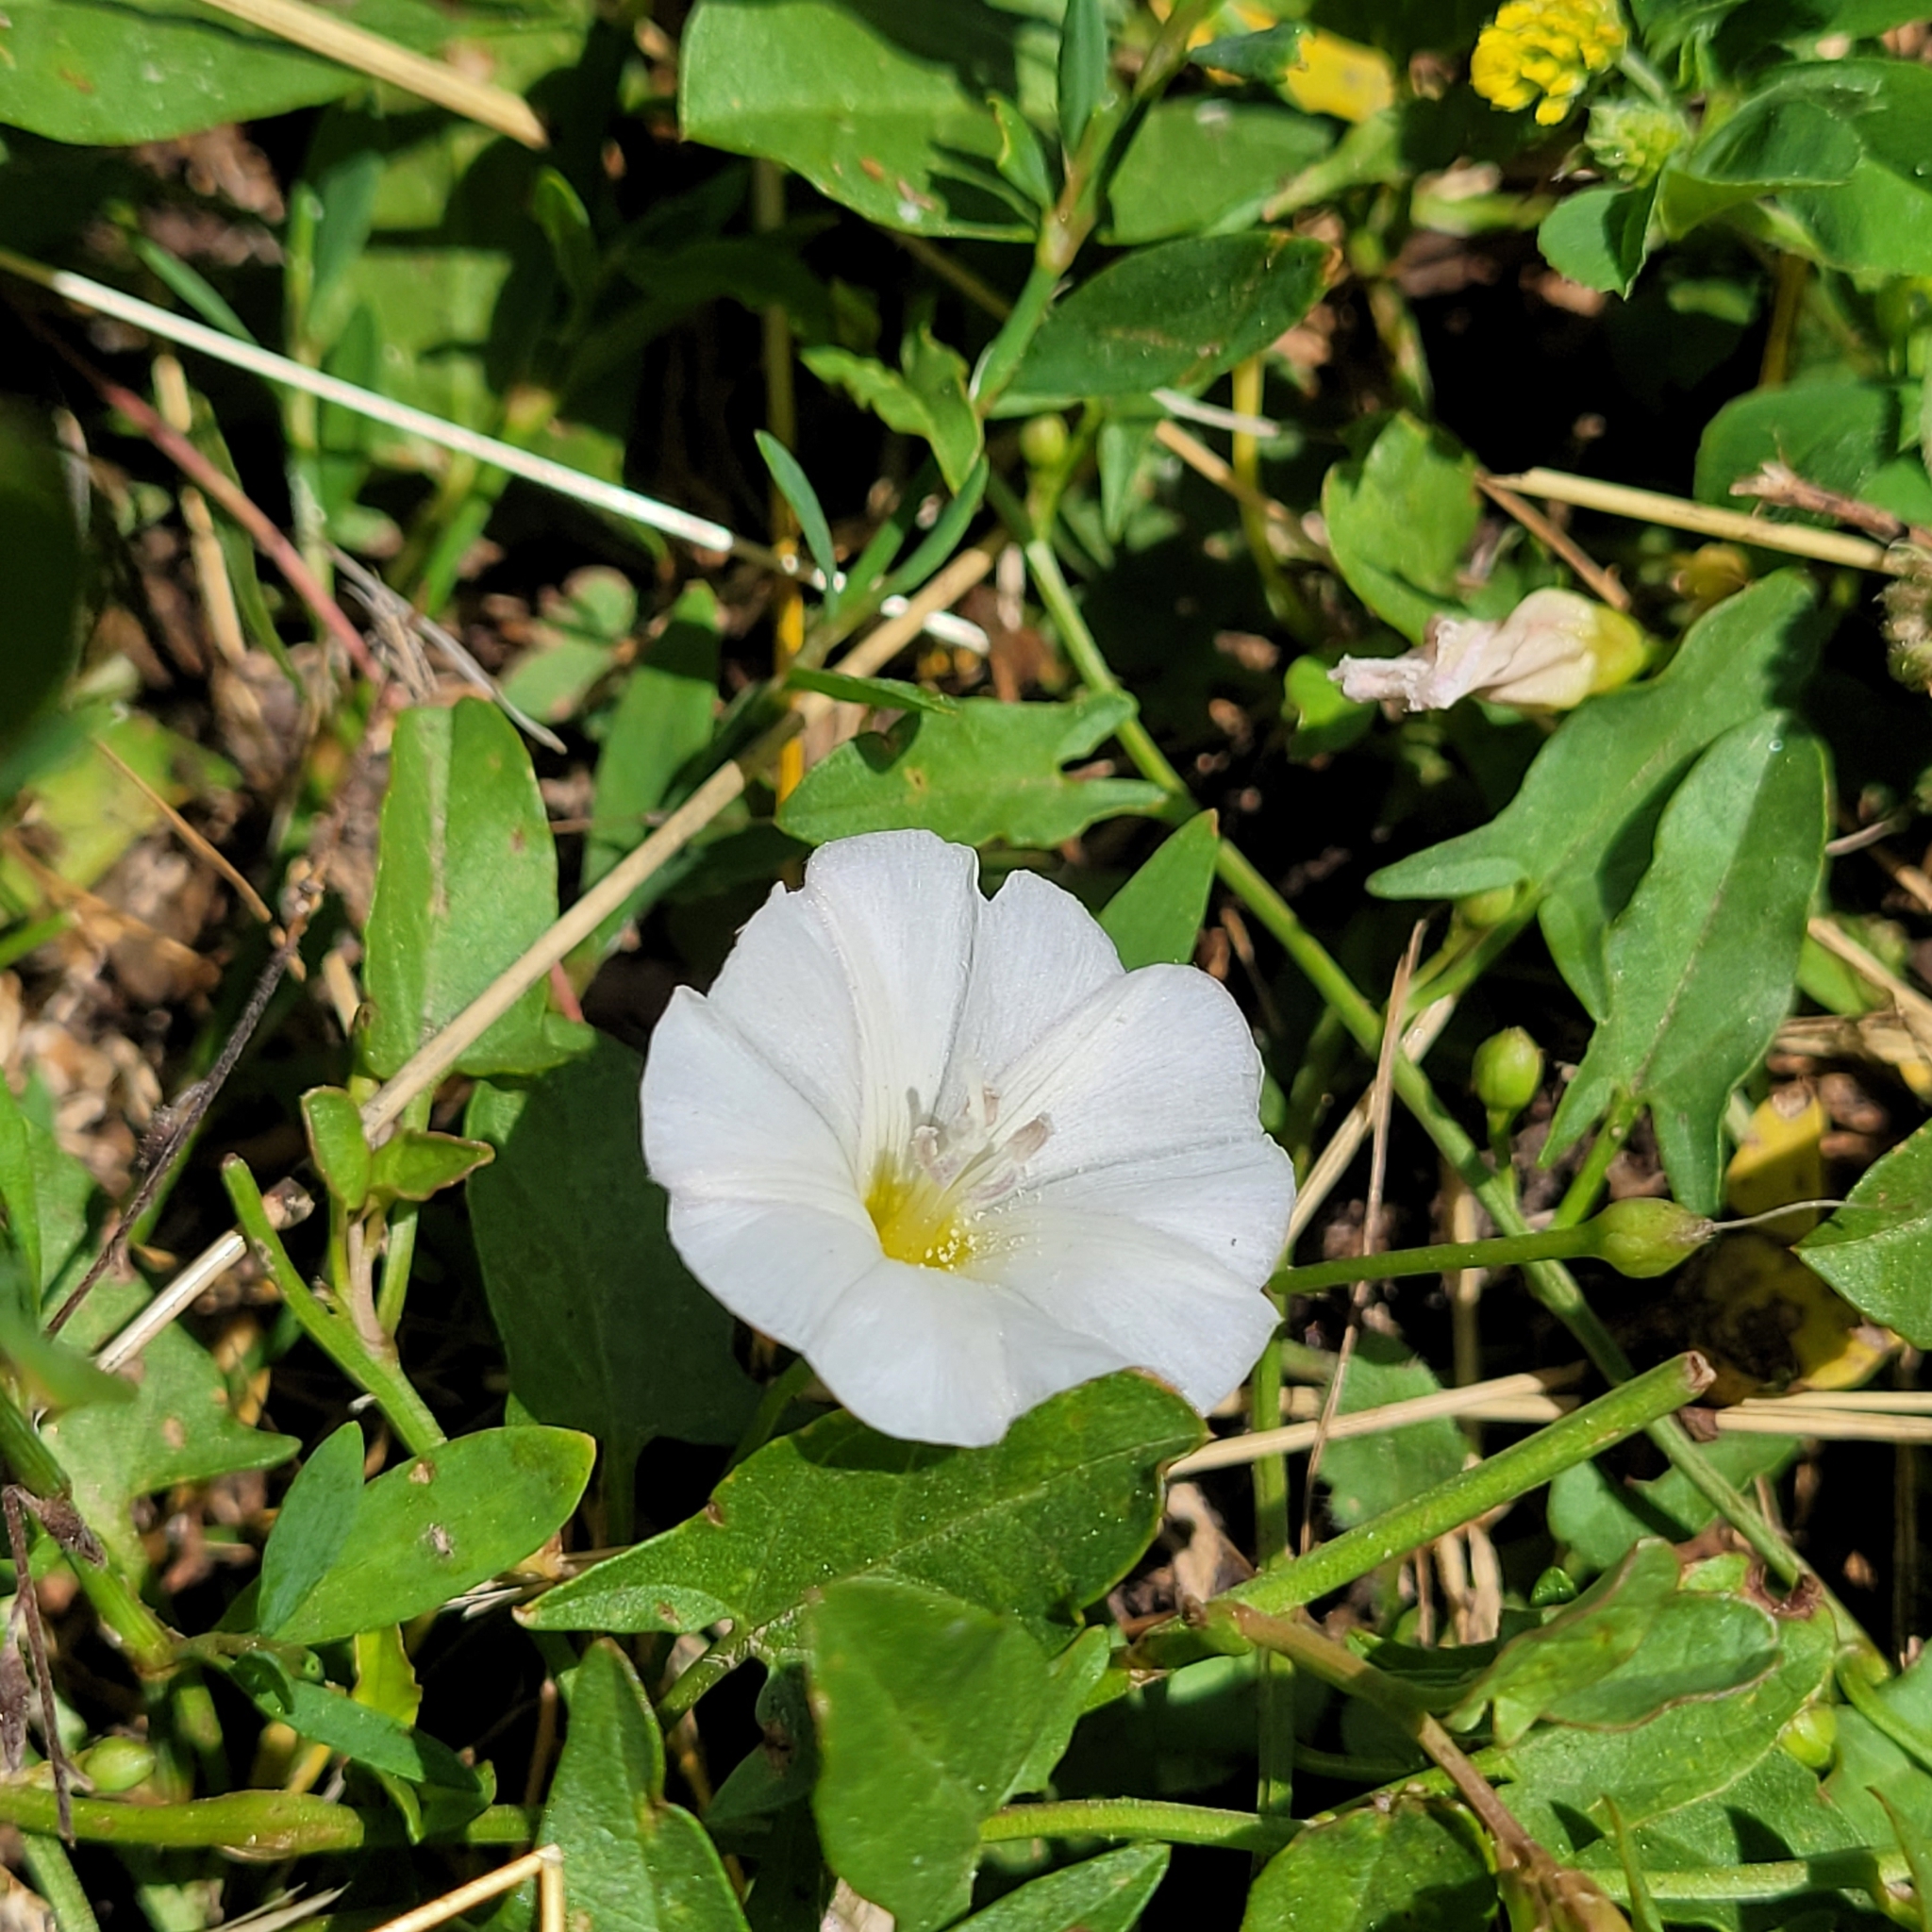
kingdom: Plantae
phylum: Tracheophyta
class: Magnoliopsida
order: Solanales
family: Convolvulaceae
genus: Convolvulus
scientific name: Convolvulus arvensis
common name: Field bindweed
